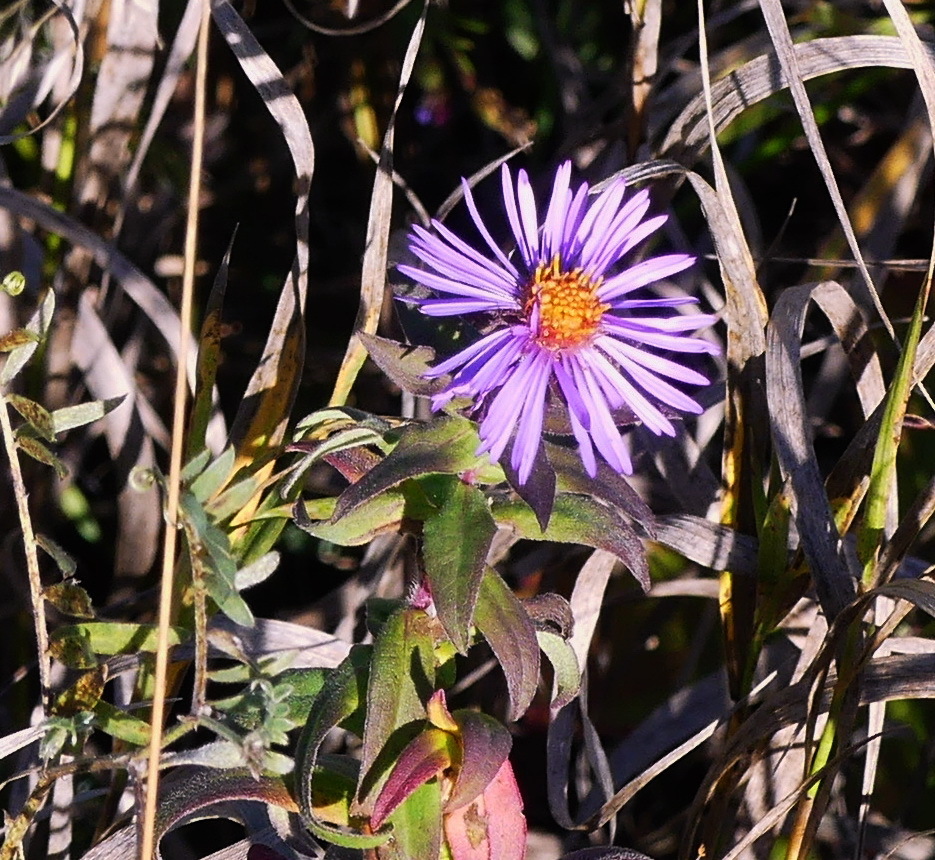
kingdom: Plantae
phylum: Tracheophyta
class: Magnoliopsida
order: Asterales
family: Asteraceae
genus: Symphyotrichum
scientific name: Symphyotrichum novae-angliae
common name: Michaelmas daisy
